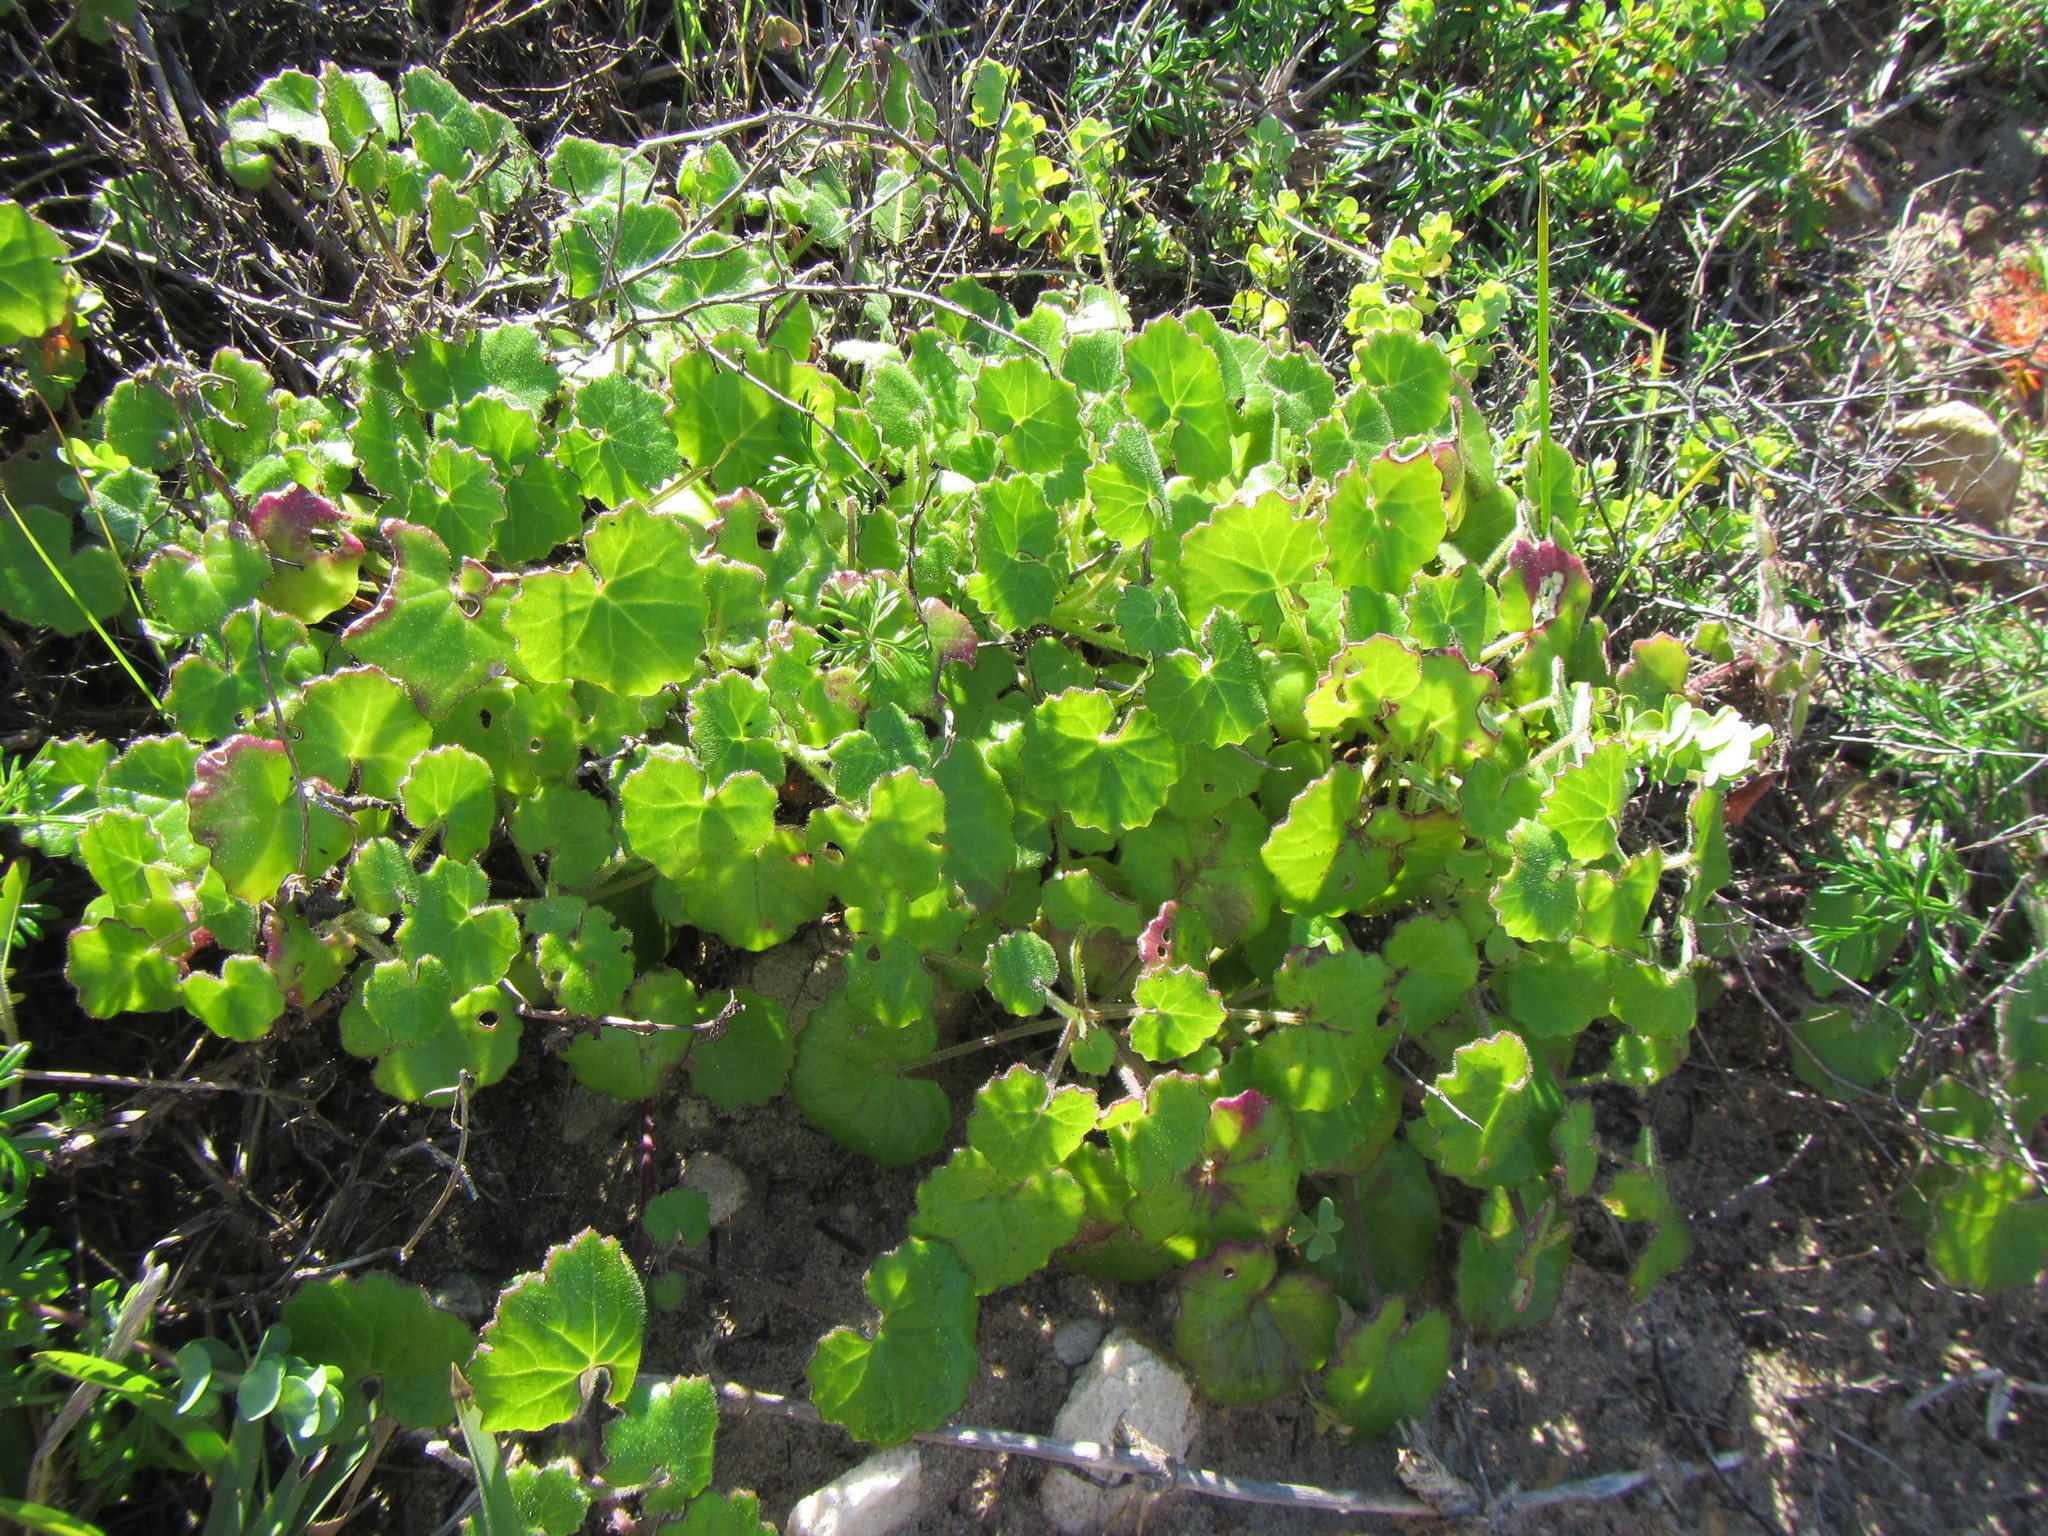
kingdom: Plantae
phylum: Tracheophyta
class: Magnoliopsida
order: Asterales
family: Asteraceae
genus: Cineraria
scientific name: Cineraria geifolia
